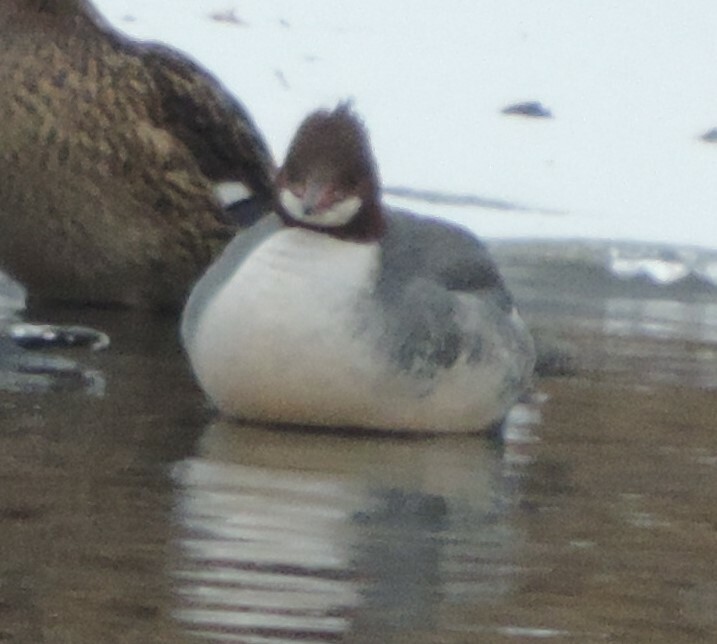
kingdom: Animalia
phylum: Chordata
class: Aves
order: Anseriformes
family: Anatidae
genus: Mergus
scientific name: Mergus merganser
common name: Common merganser
